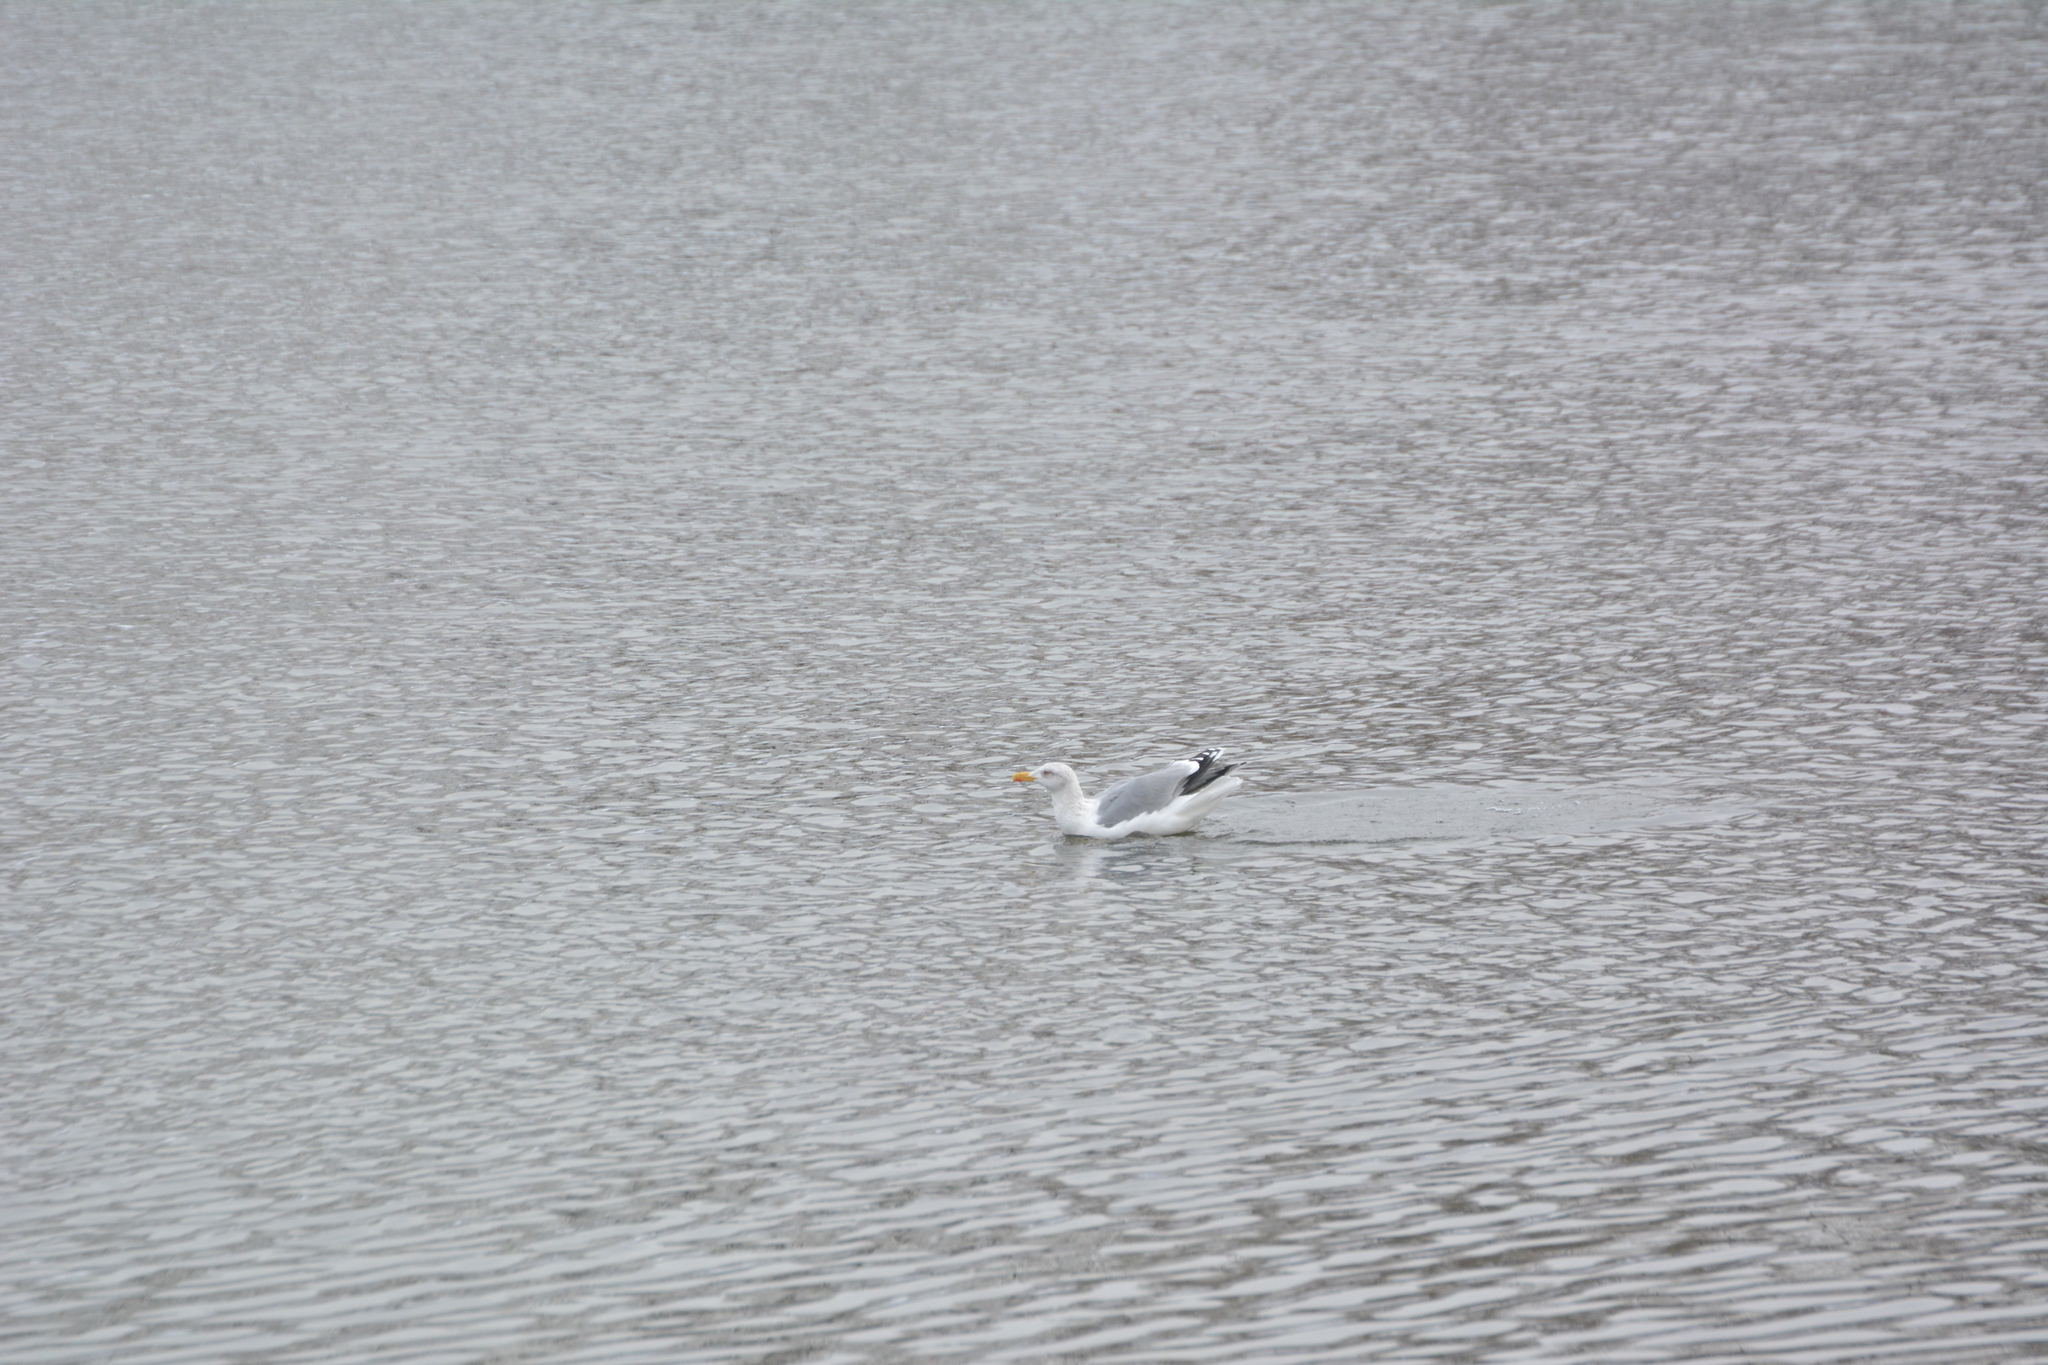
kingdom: Animalia
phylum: Chordata
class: Aves
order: Charadriiformes
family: Laridae
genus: Larus
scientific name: Larus argentatus
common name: Herring gull
